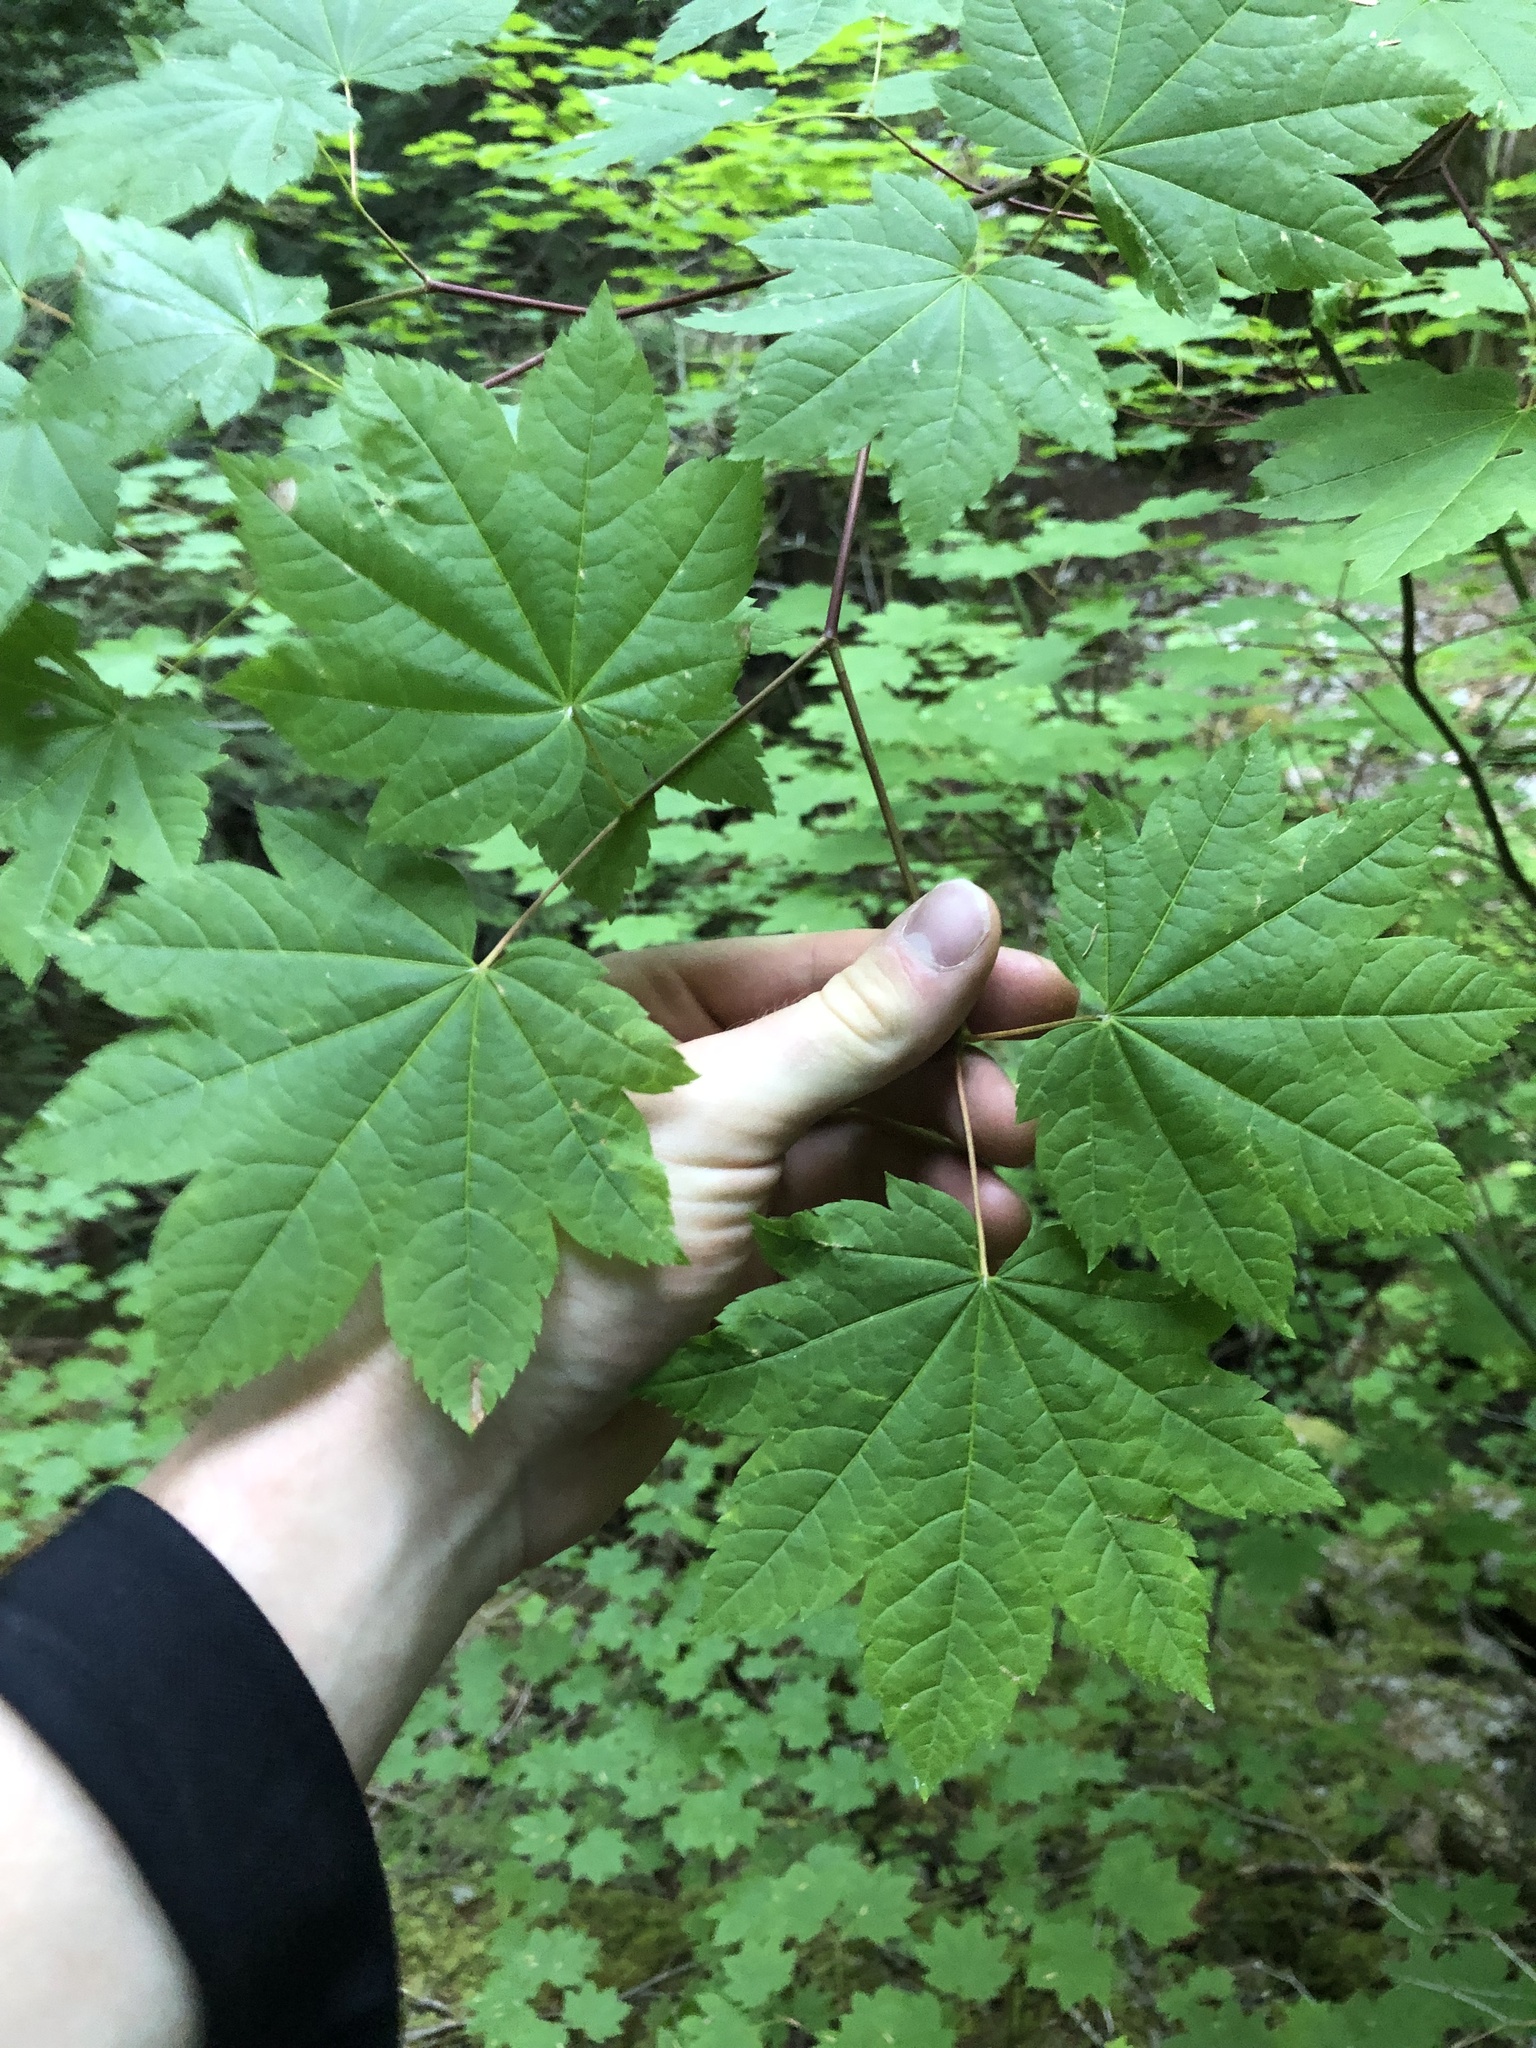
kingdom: Plantae
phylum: Tracheophyta
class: Magnoliopsida
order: Sapindales
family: Sapindaceae
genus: Acer
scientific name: Acer circinatum
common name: Vine maple
